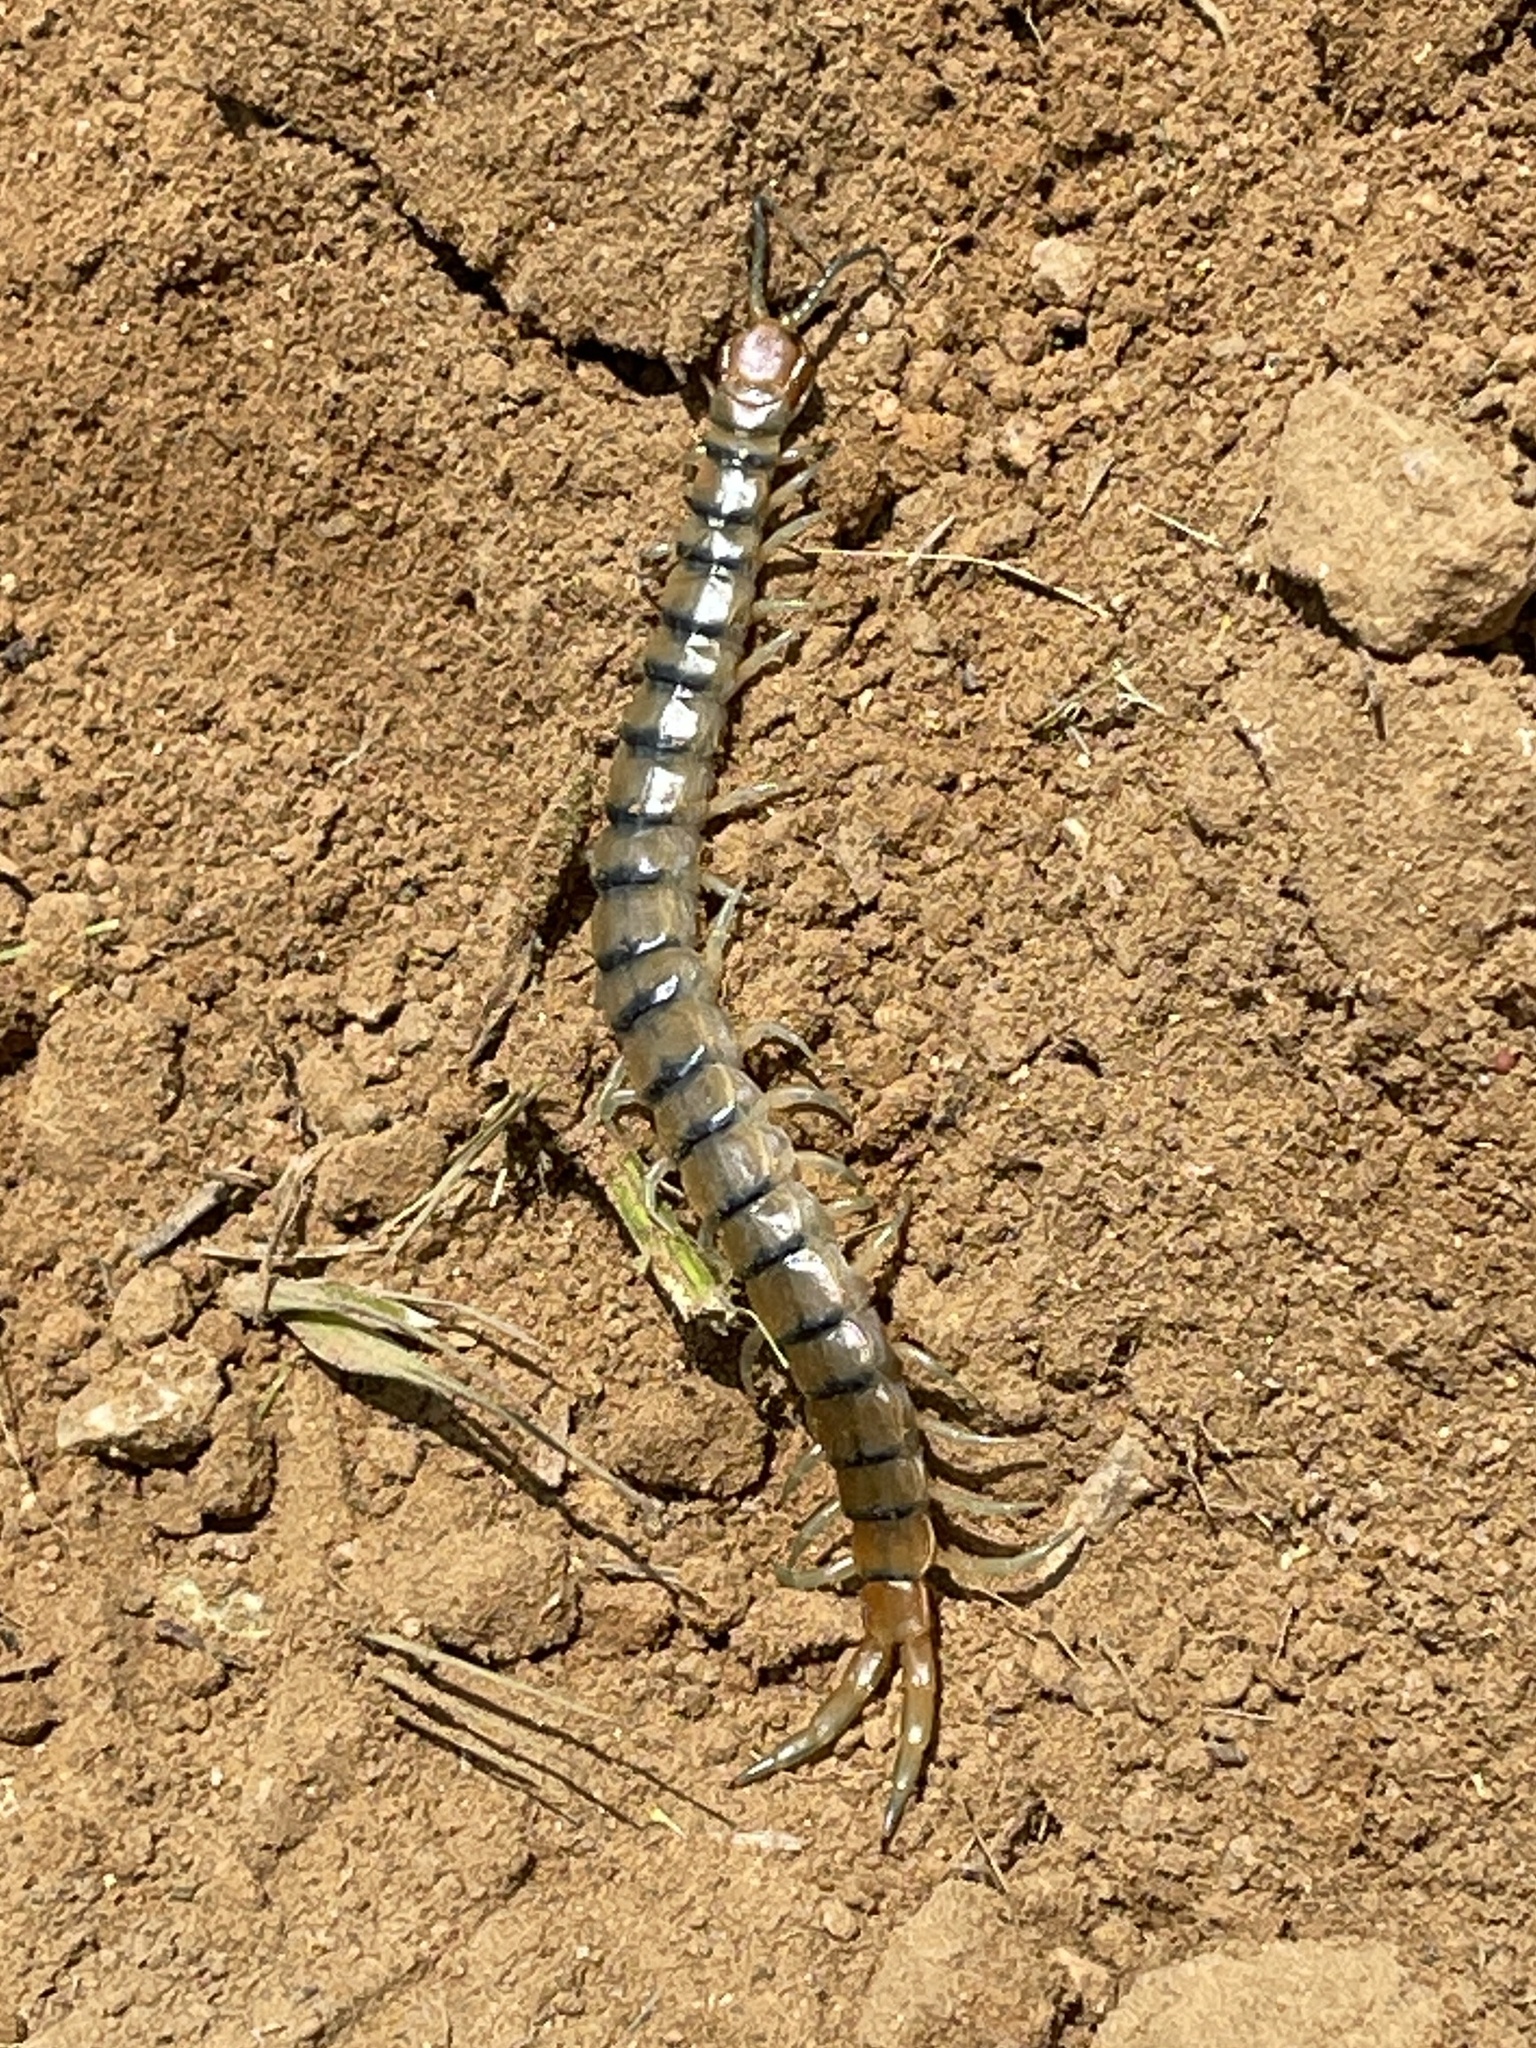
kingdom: Animalia
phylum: Arthropoda
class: Chilopoda
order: Scolopendromorpha
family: Scolopendridae
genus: Scolopendra
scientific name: Scolopendra polymorpha
